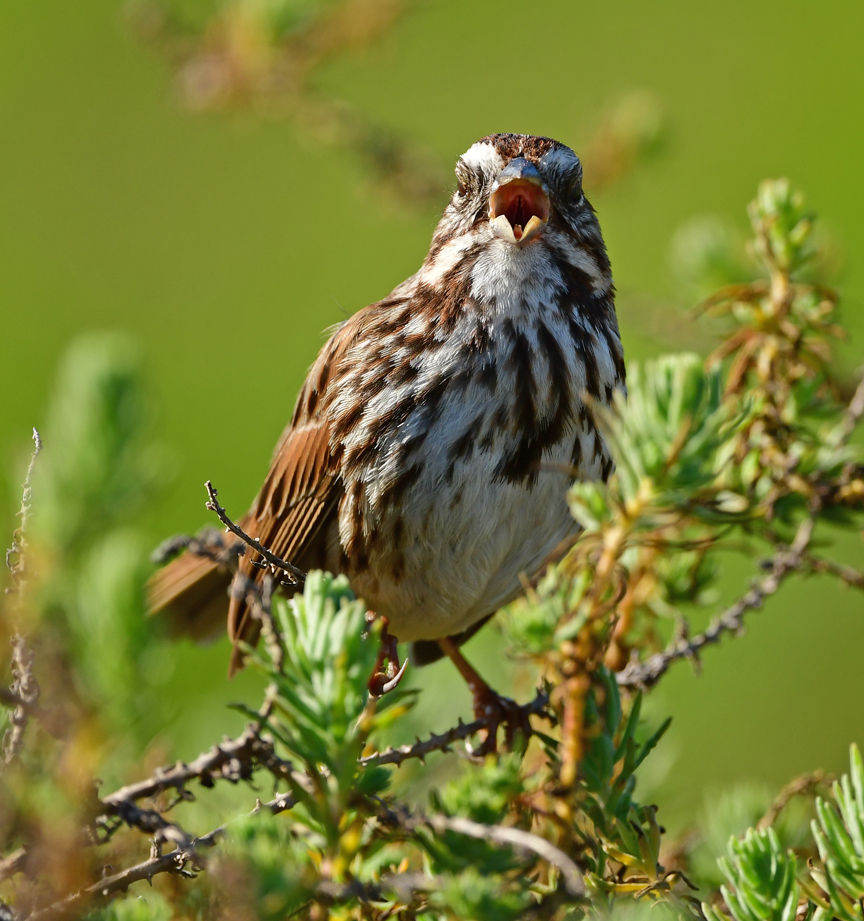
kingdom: Animalia
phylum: Chordata
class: Aves
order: Passeriformes
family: Passerellidae
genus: Melospiza
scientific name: Melospiza melodia
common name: Song sparrow
